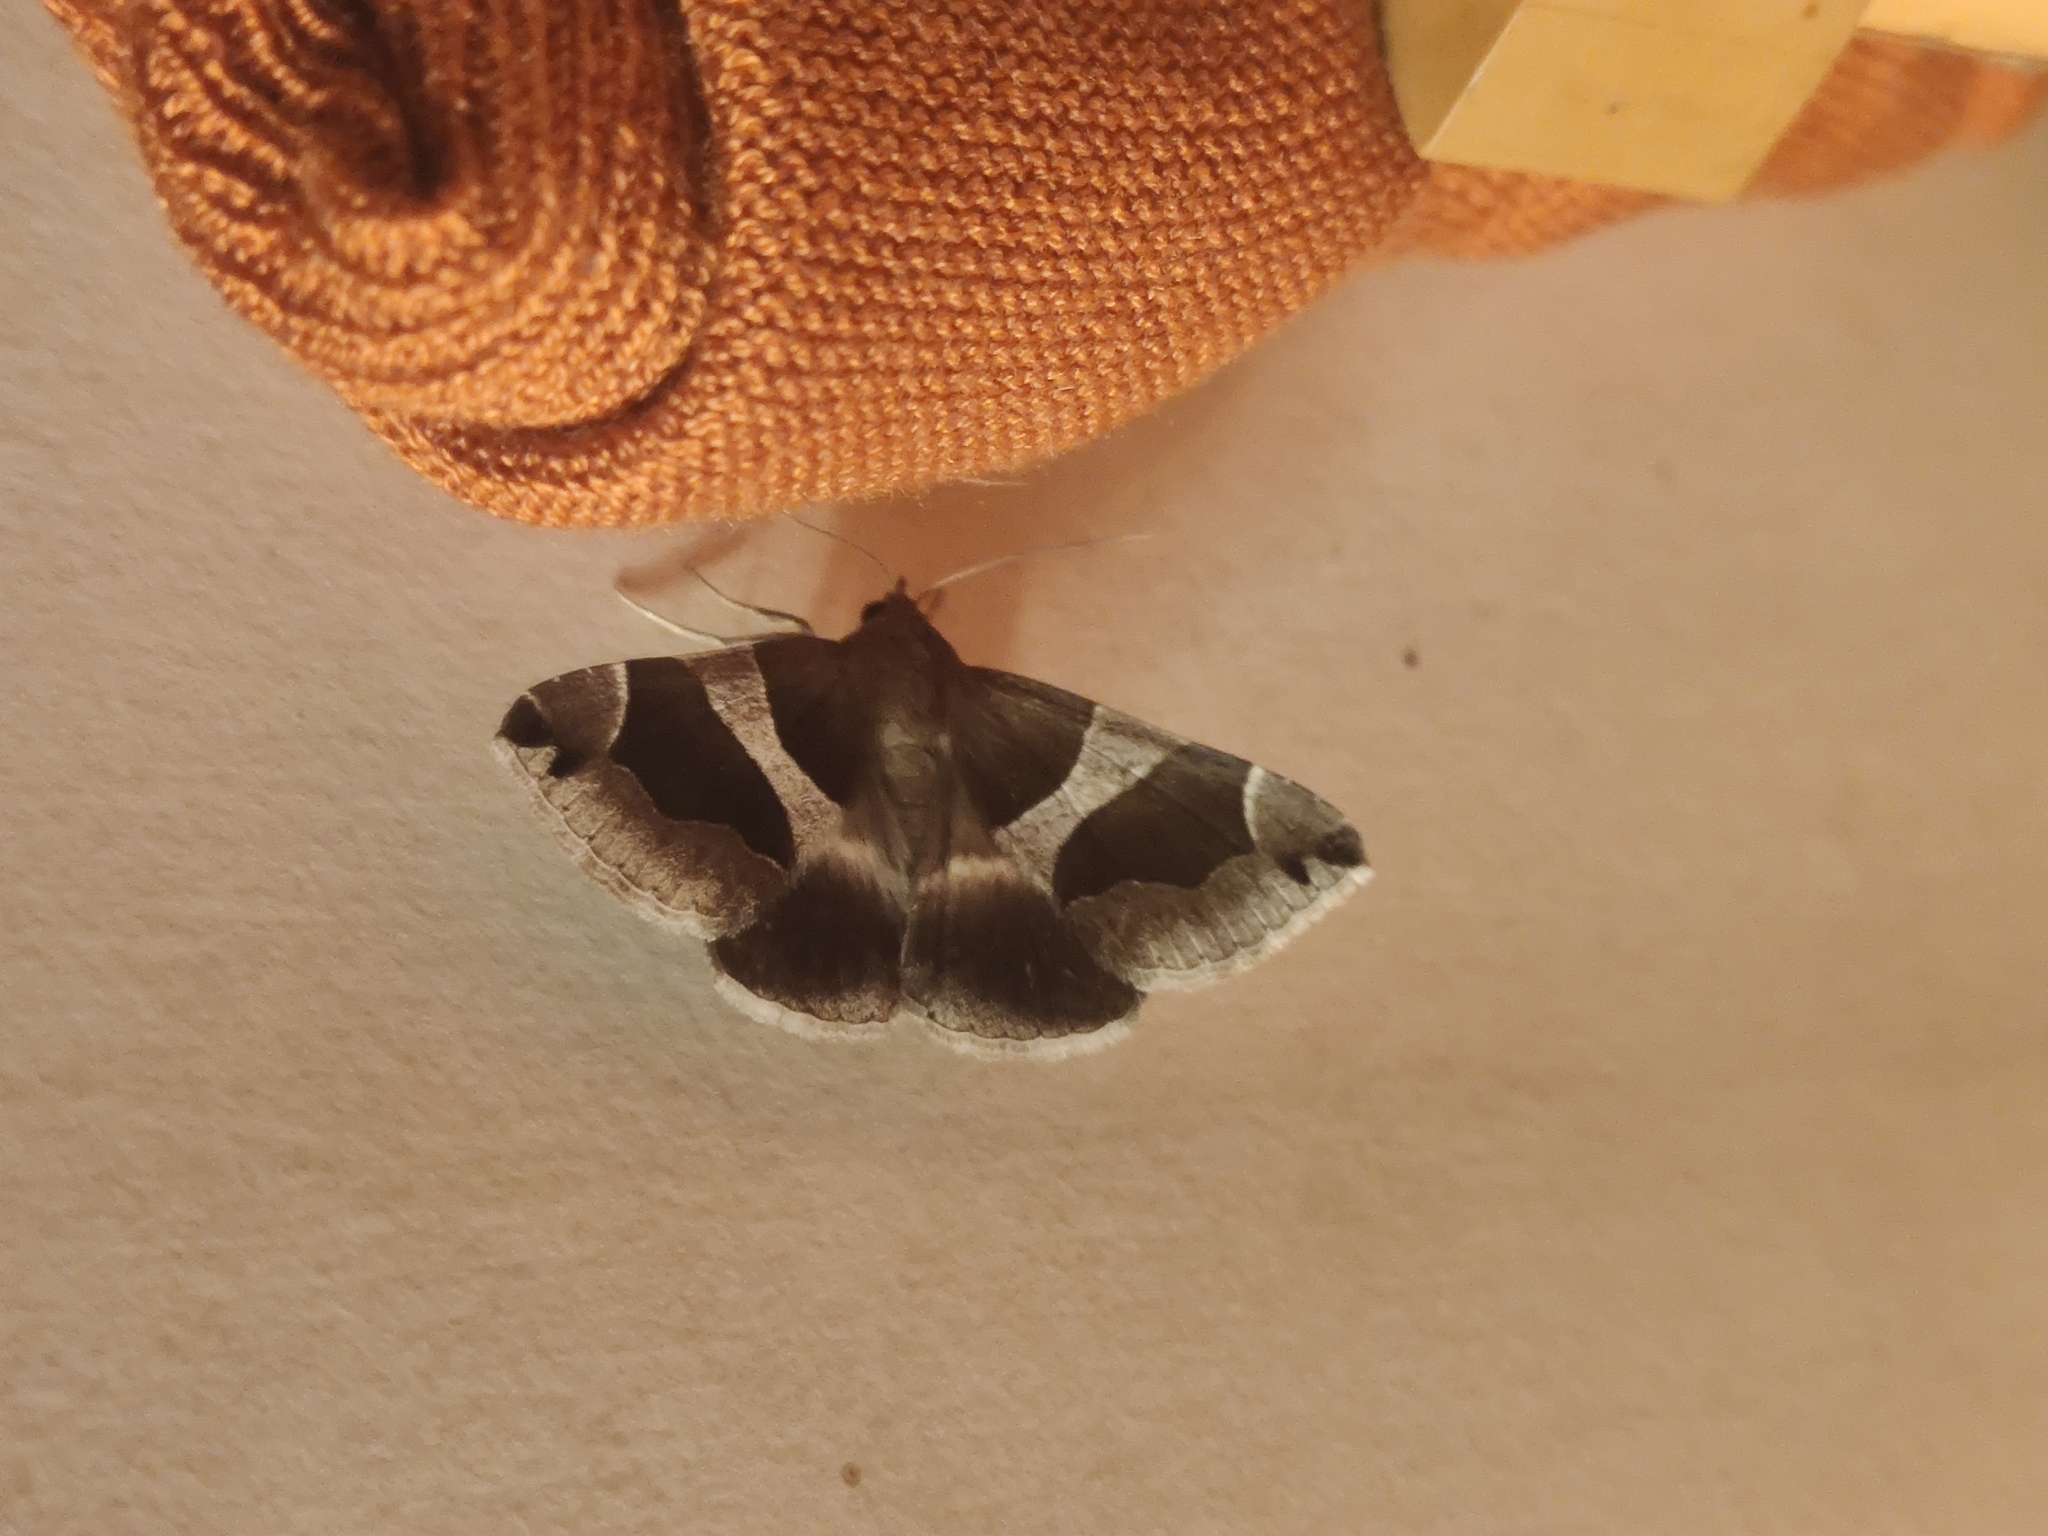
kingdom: Animalia
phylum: Arthropoda
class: Insecta
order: Lepidoptera
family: Erebidae
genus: Dysgonia
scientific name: Dysgonia algira
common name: Passenger
